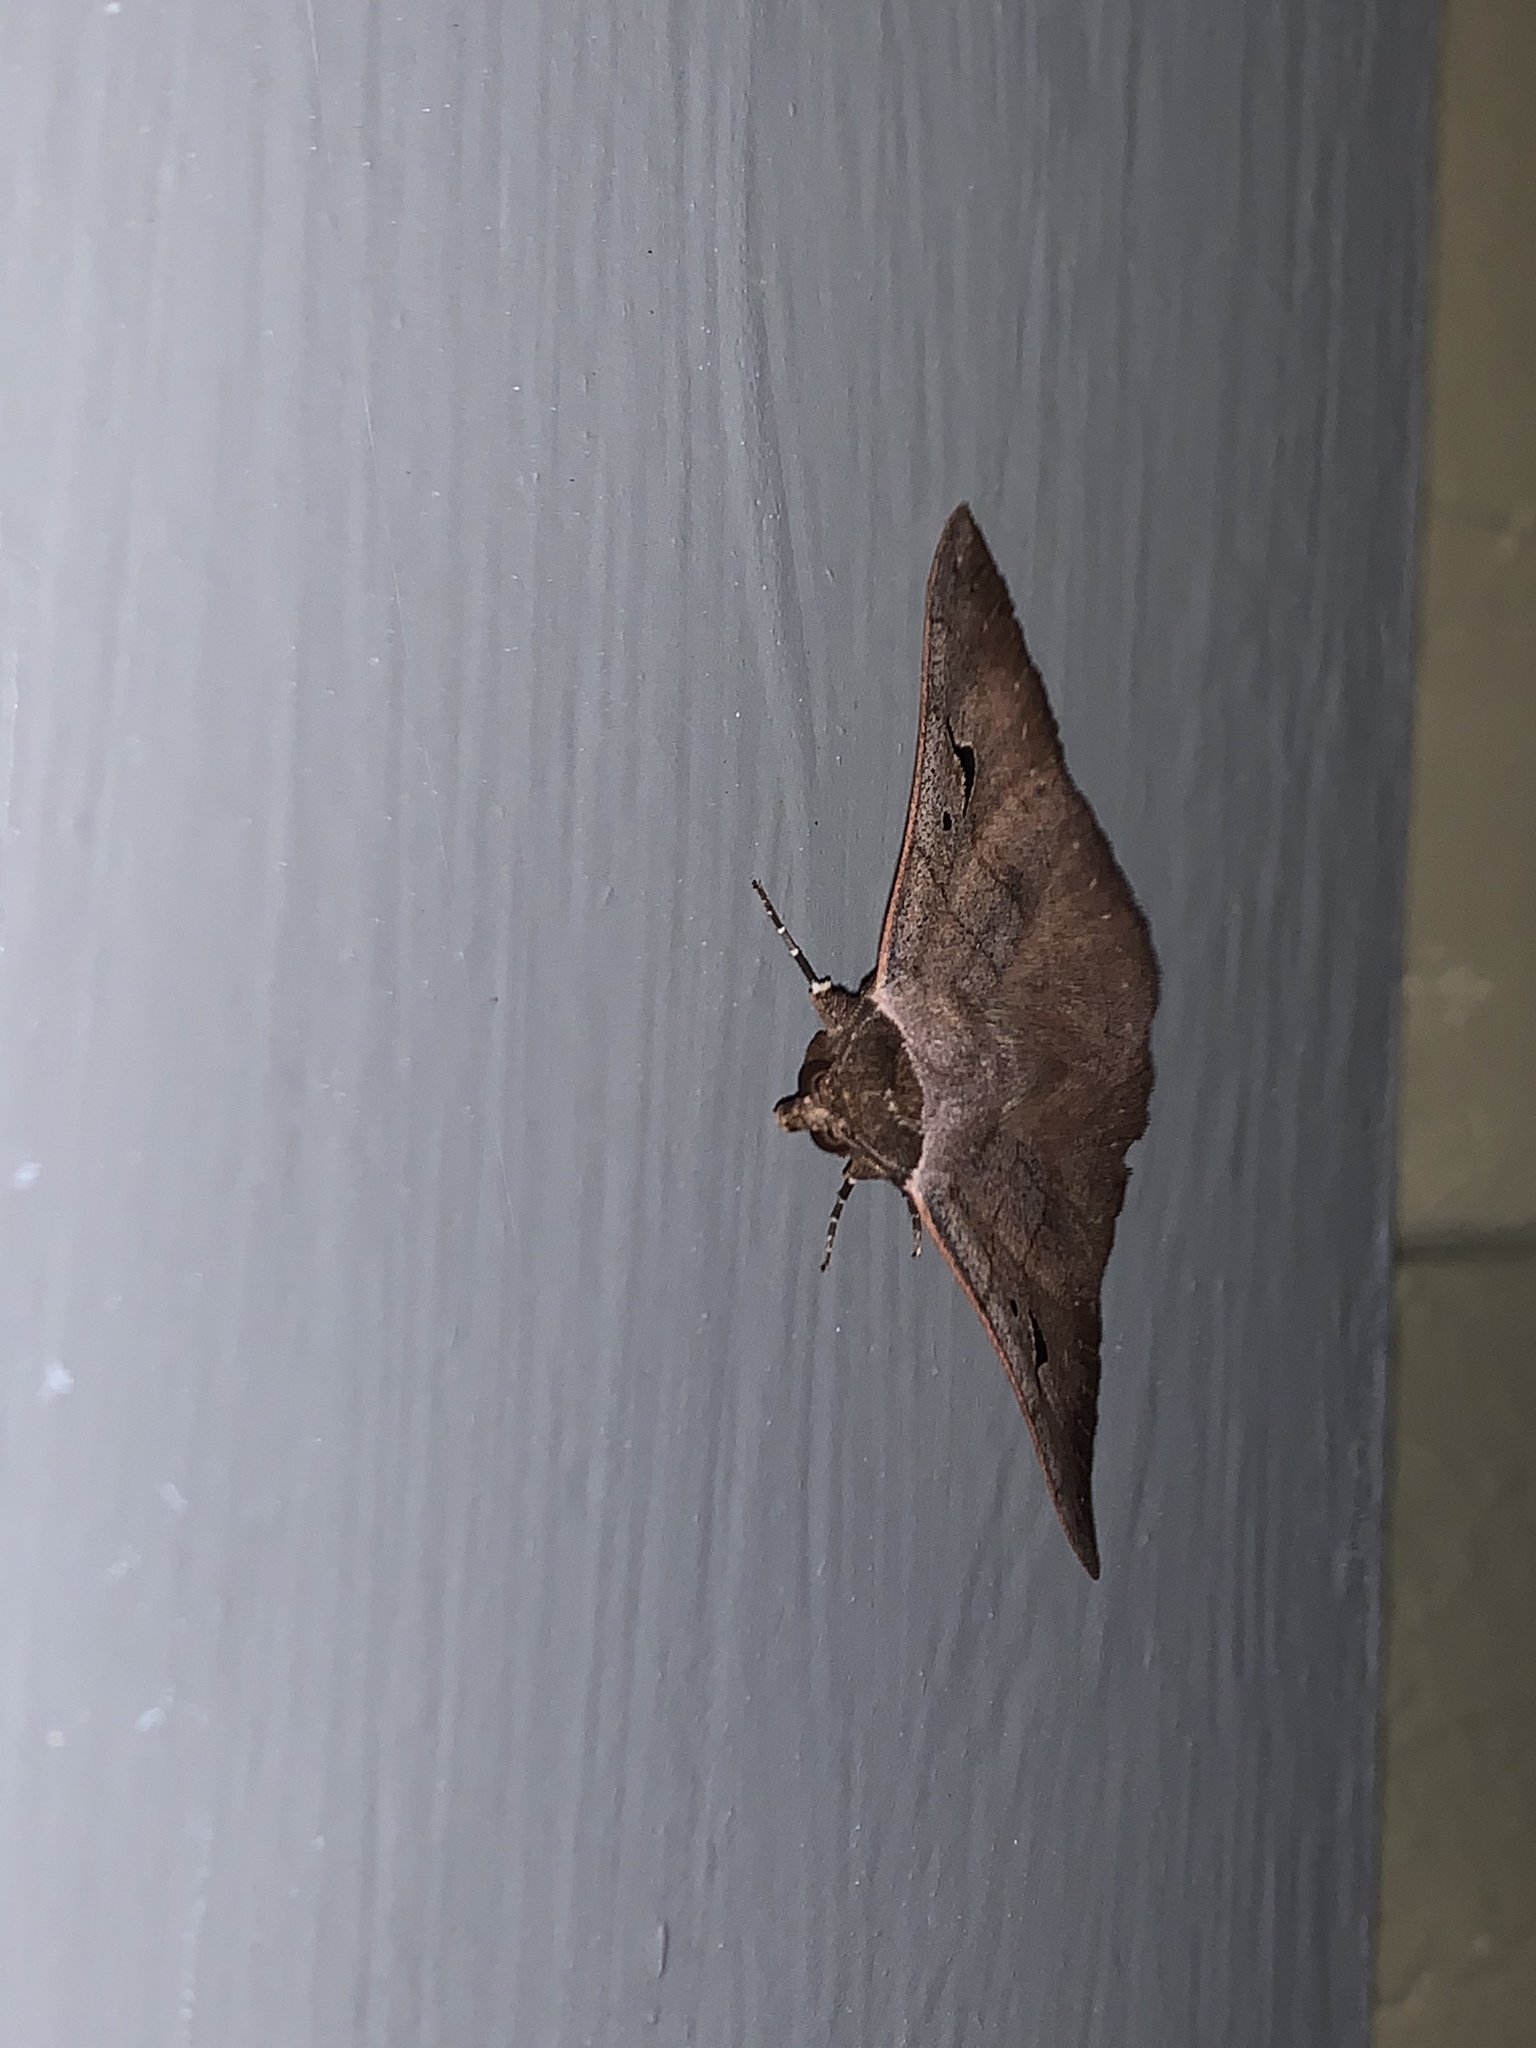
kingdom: Animalia
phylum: Arthropoda
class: Insecta
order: Lepidoptera
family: Erebidae
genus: Panopoda
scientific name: Panopoda carneicosta
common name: Brown panopoda moth
